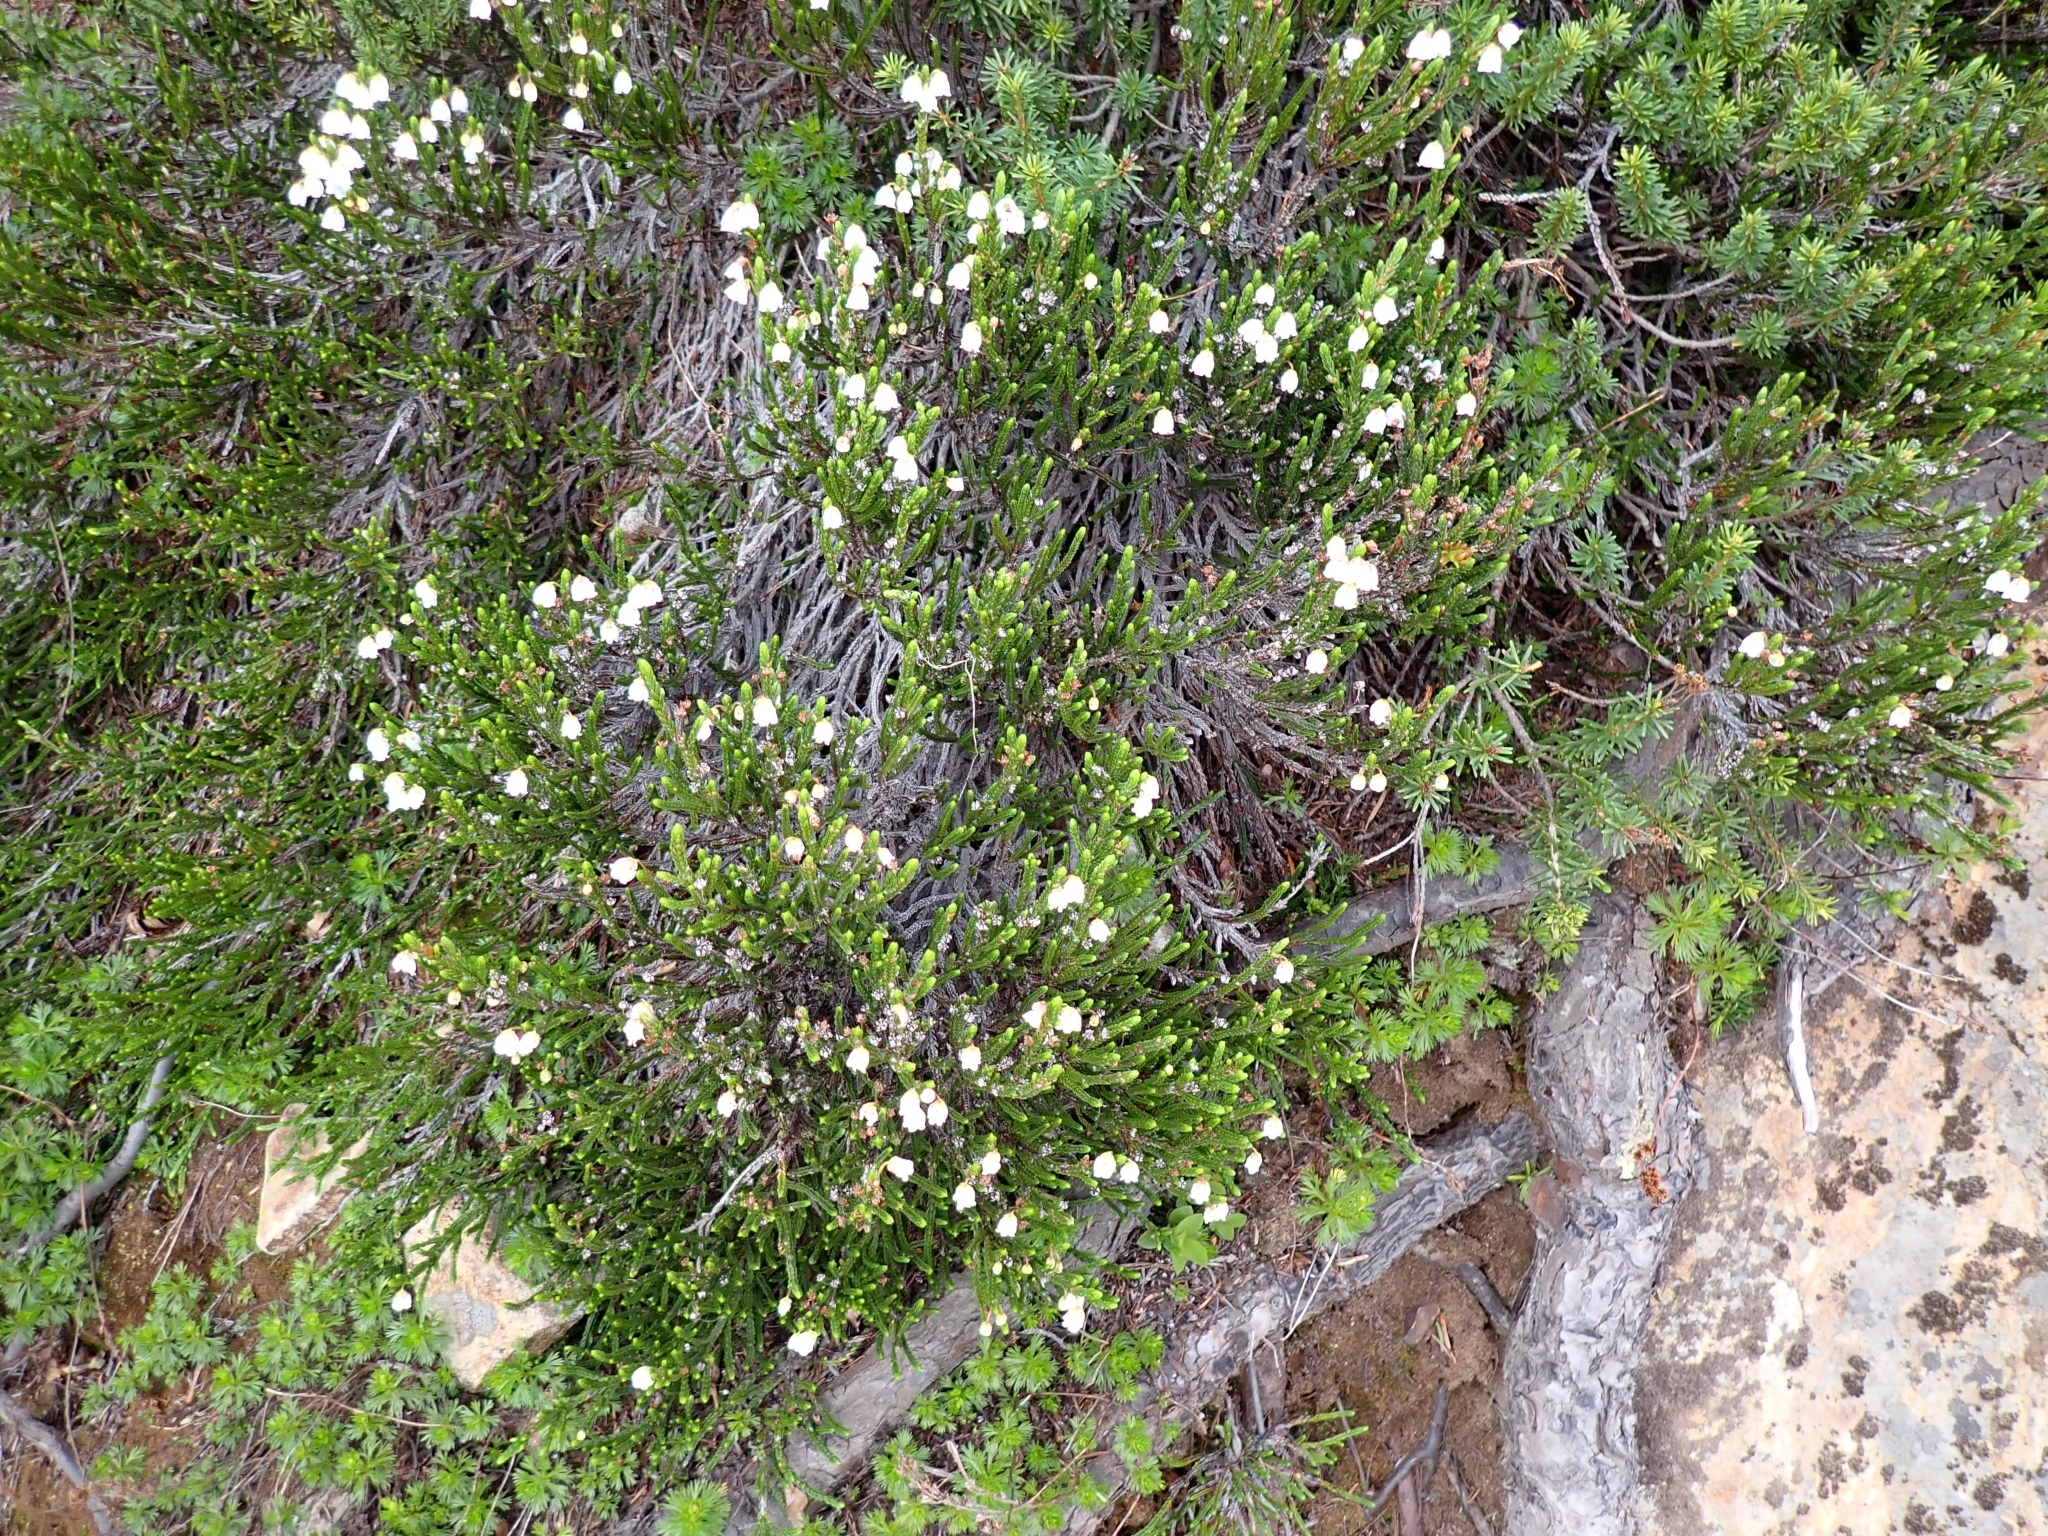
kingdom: Plantae
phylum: Tracheophyta
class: Magnoliopsida
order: Ericales
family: Ericaceae
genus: Cassiope
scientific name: Cassiope mertensiana
